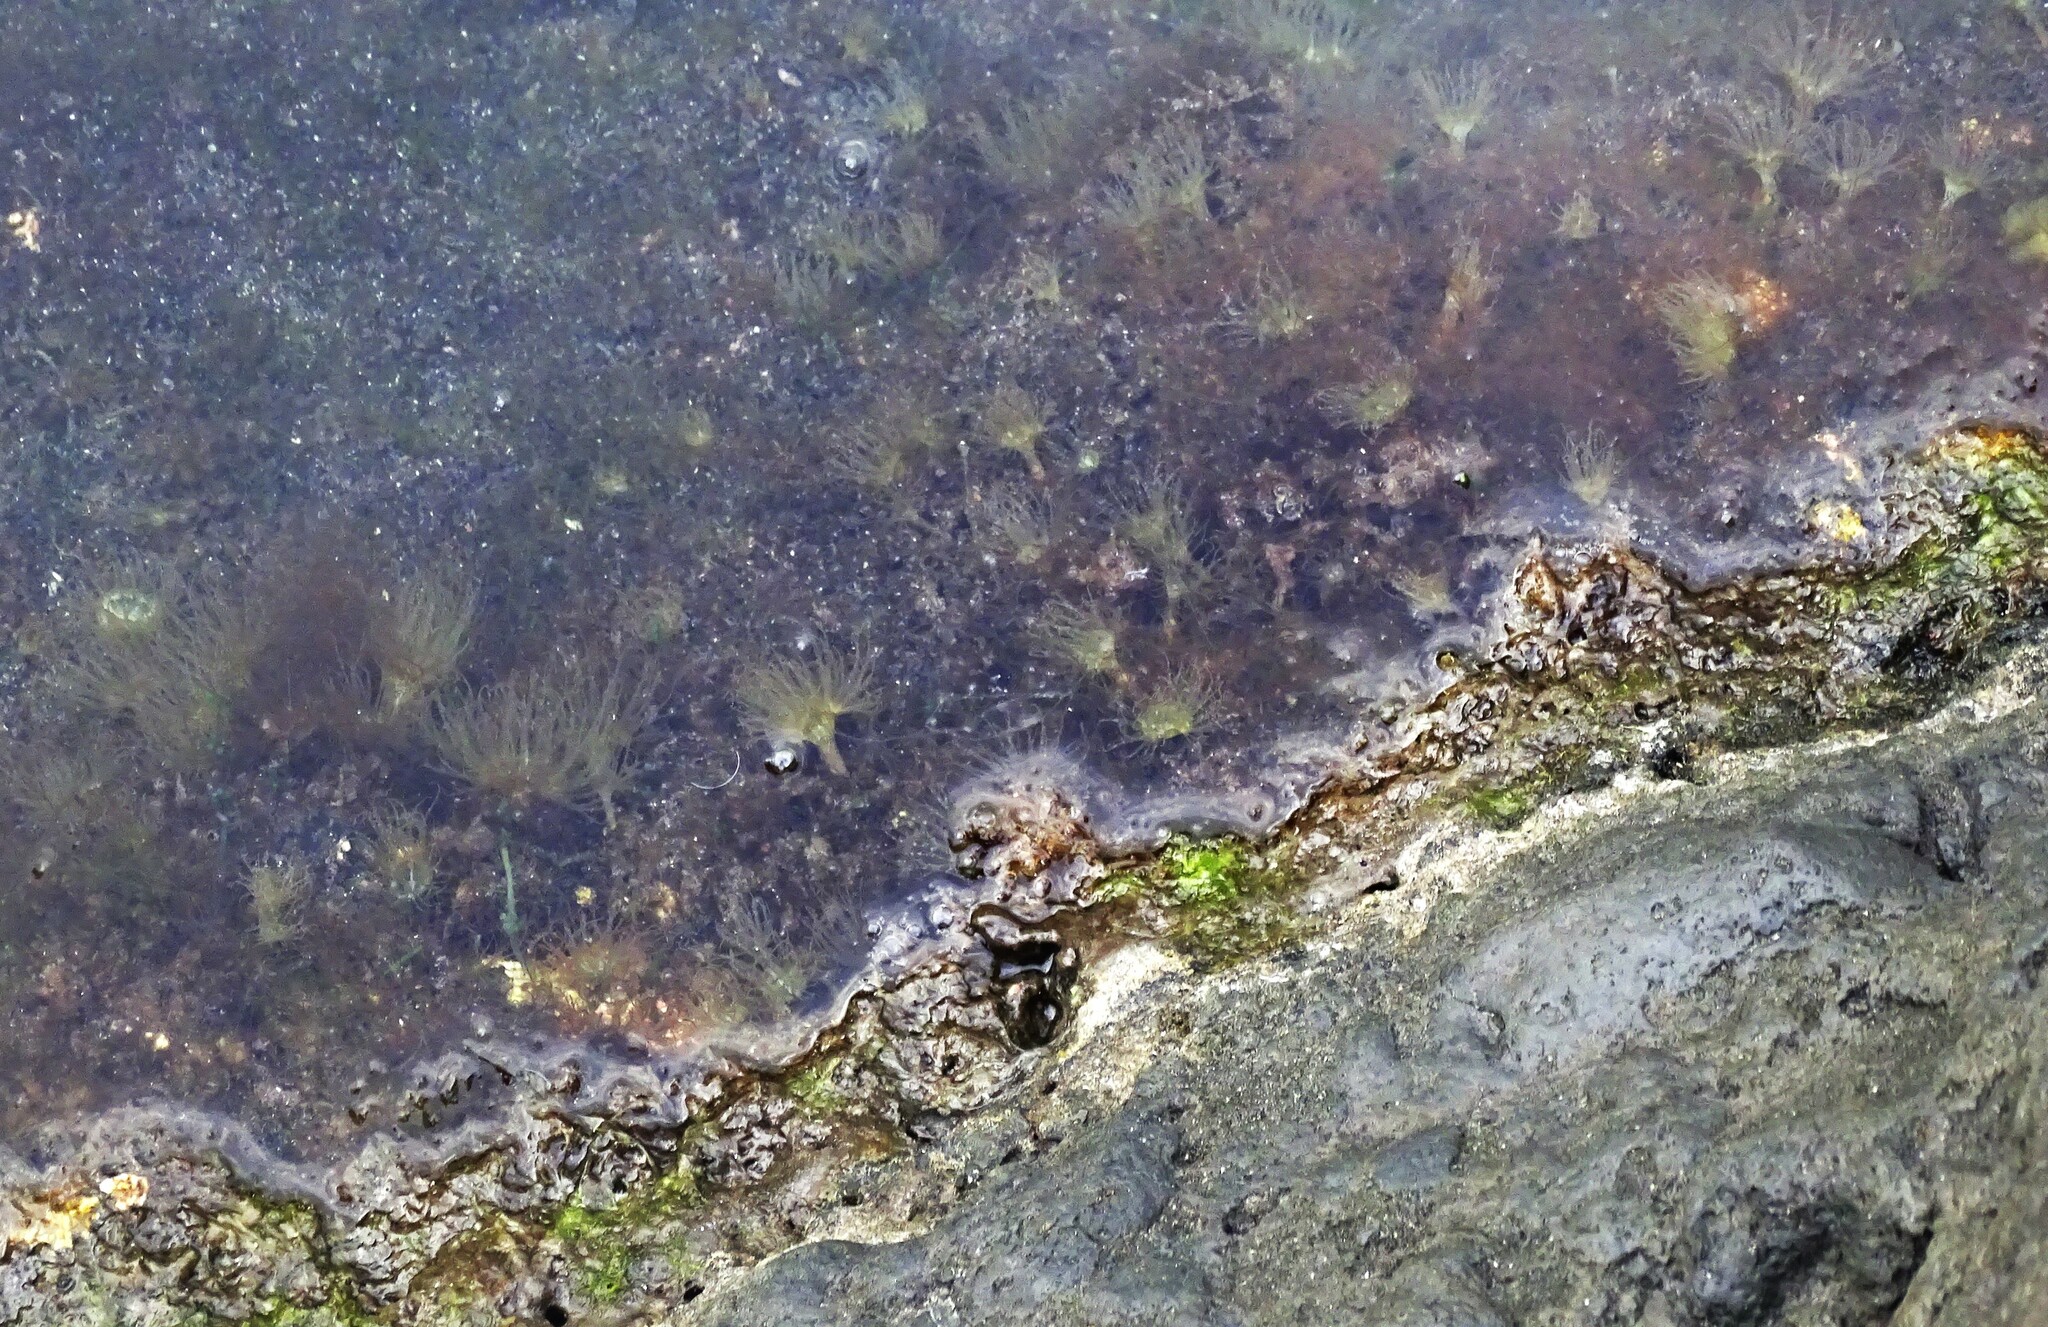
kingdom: Animalia
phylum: Cnidaria
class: Anthozoa
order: Actiniaria
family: Aiptasiidae
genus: Exaiptasia
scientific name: Exaiptasia diaphana
